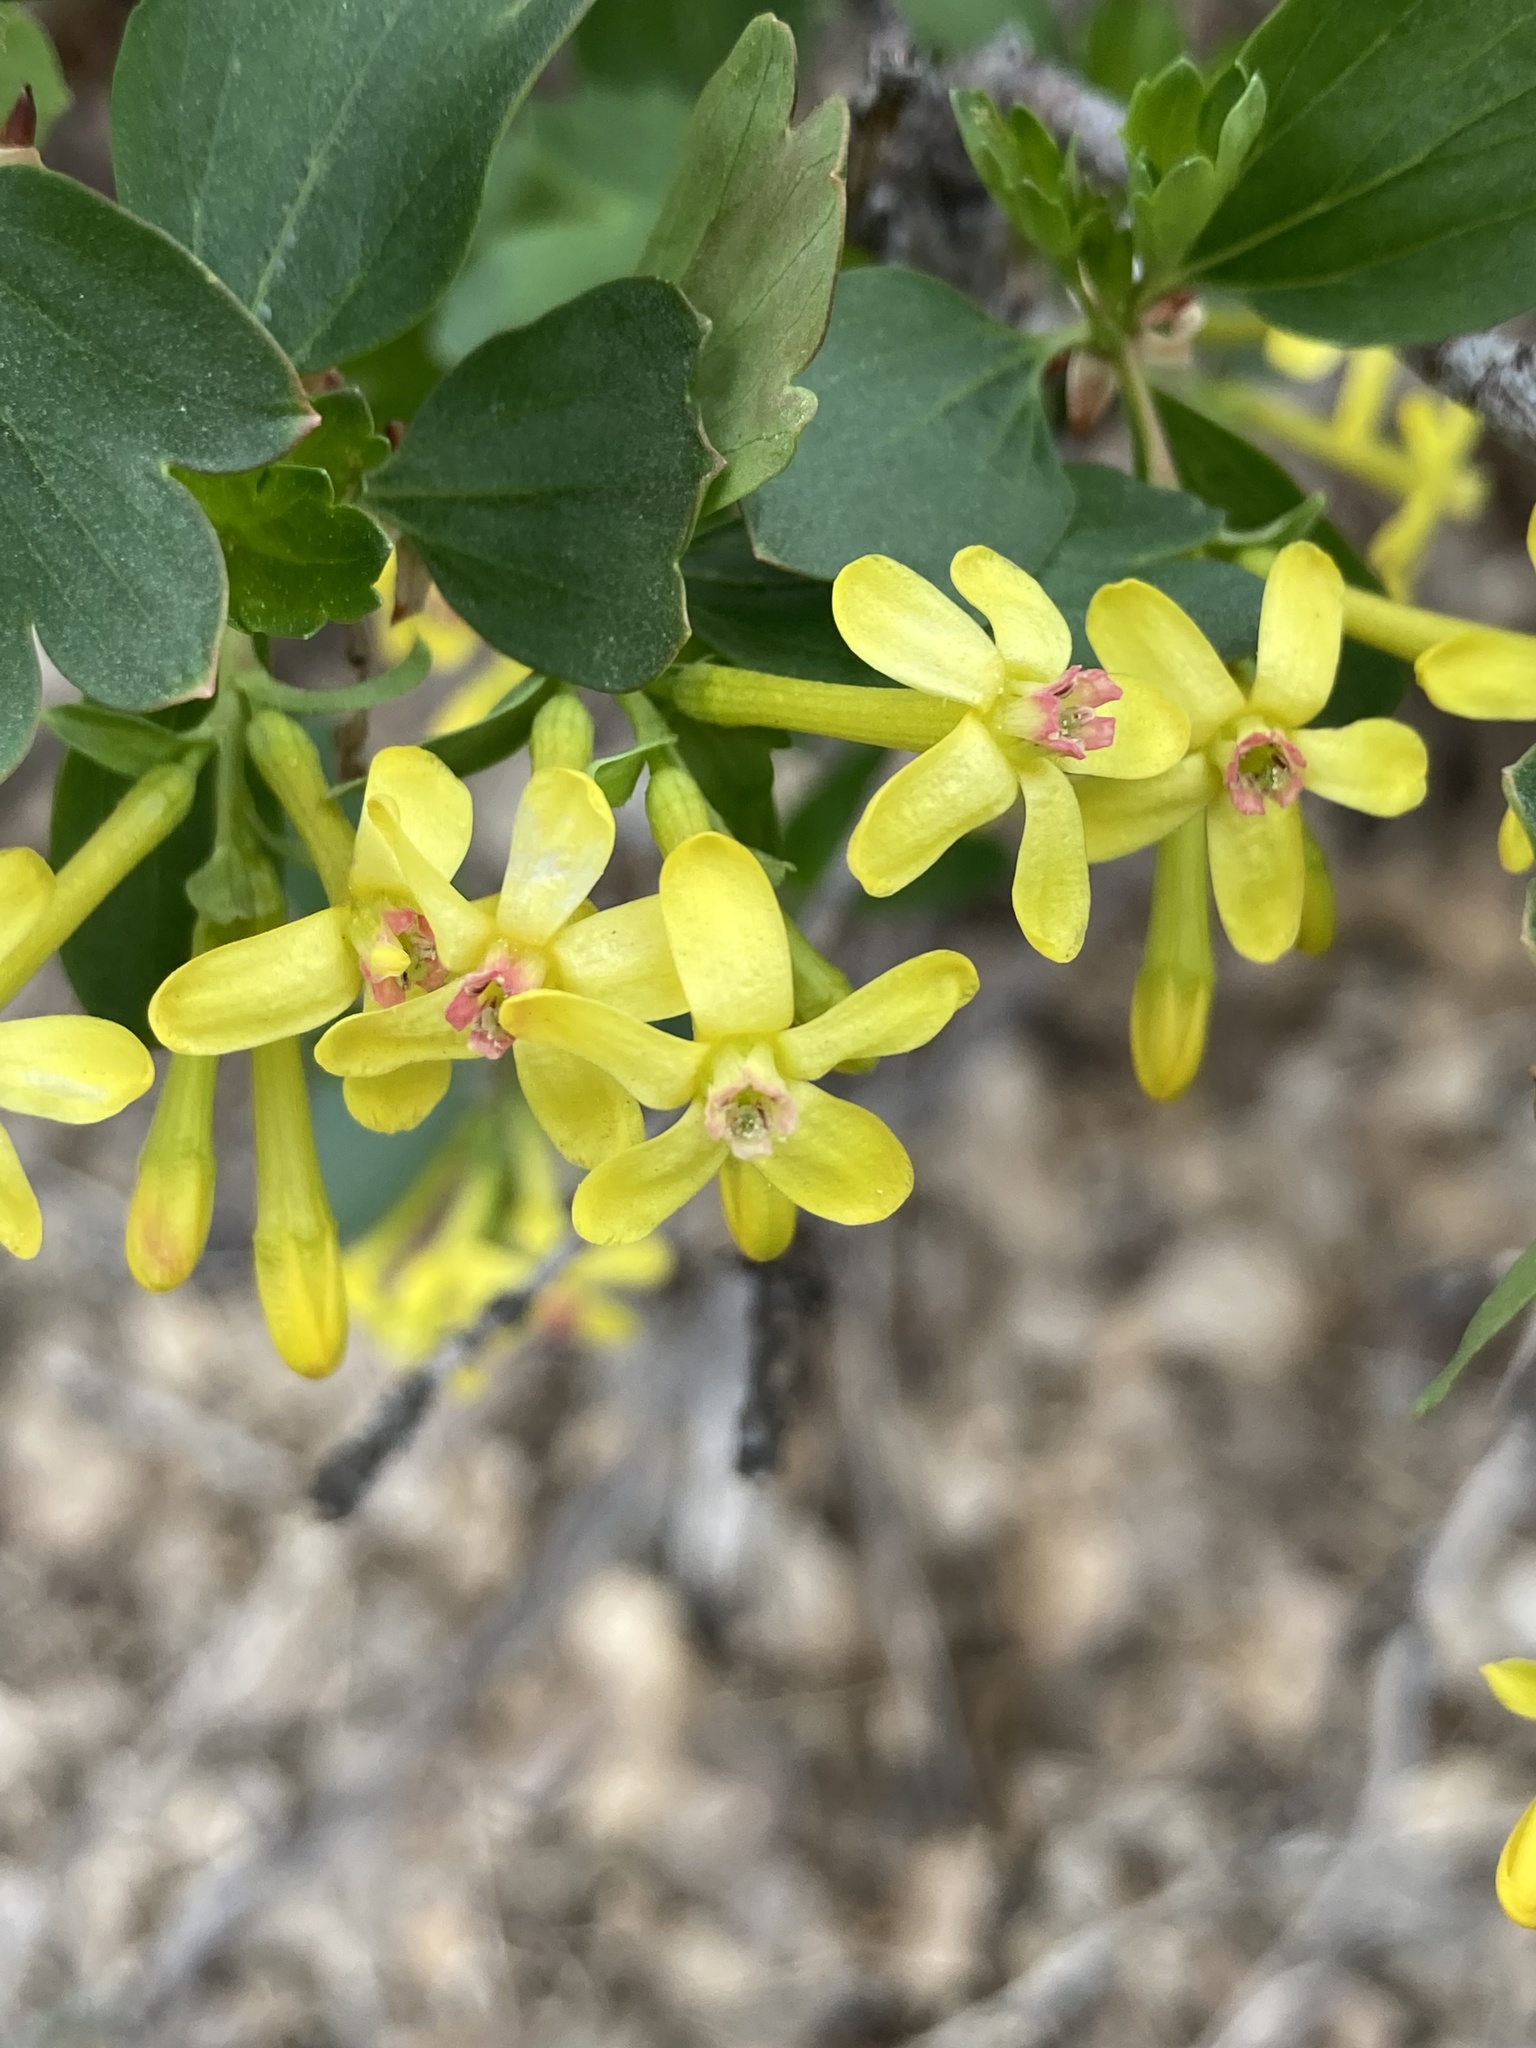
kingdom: Plantae
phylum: Tracheophyta
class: Magnoliopsida
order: Saxifragales
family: Grossulariaceae
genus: Ribes
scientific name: Ribes aureum
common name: Golden currant
